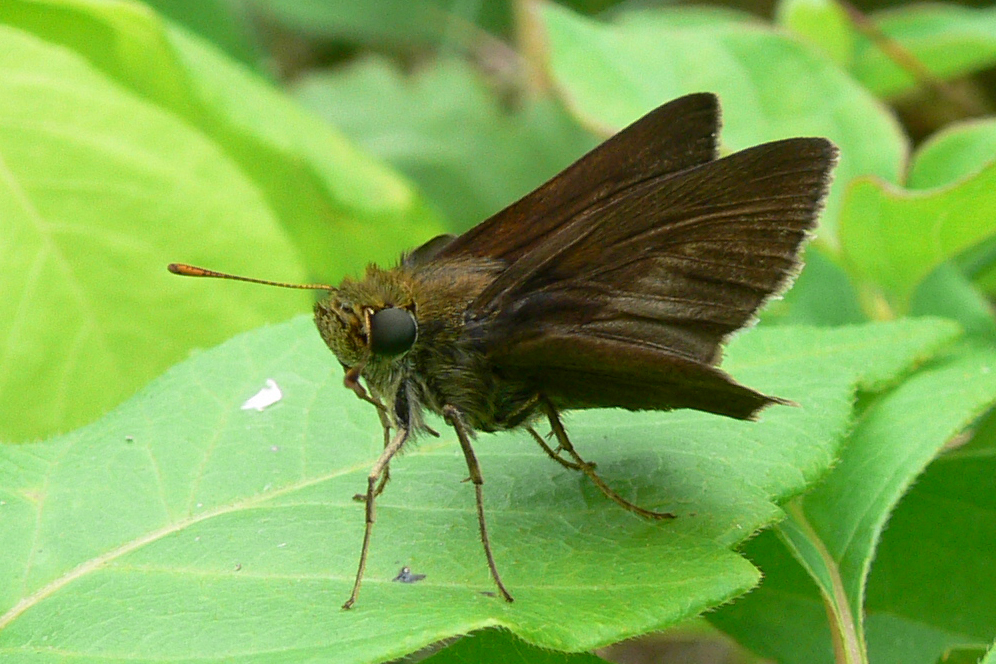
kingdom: Animalia
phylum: Arthropoda
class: Insecta
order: Lepidoptera
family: Hesperiidae
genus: Euphyes
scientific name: Euphyes vestris
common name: Dun skipper
